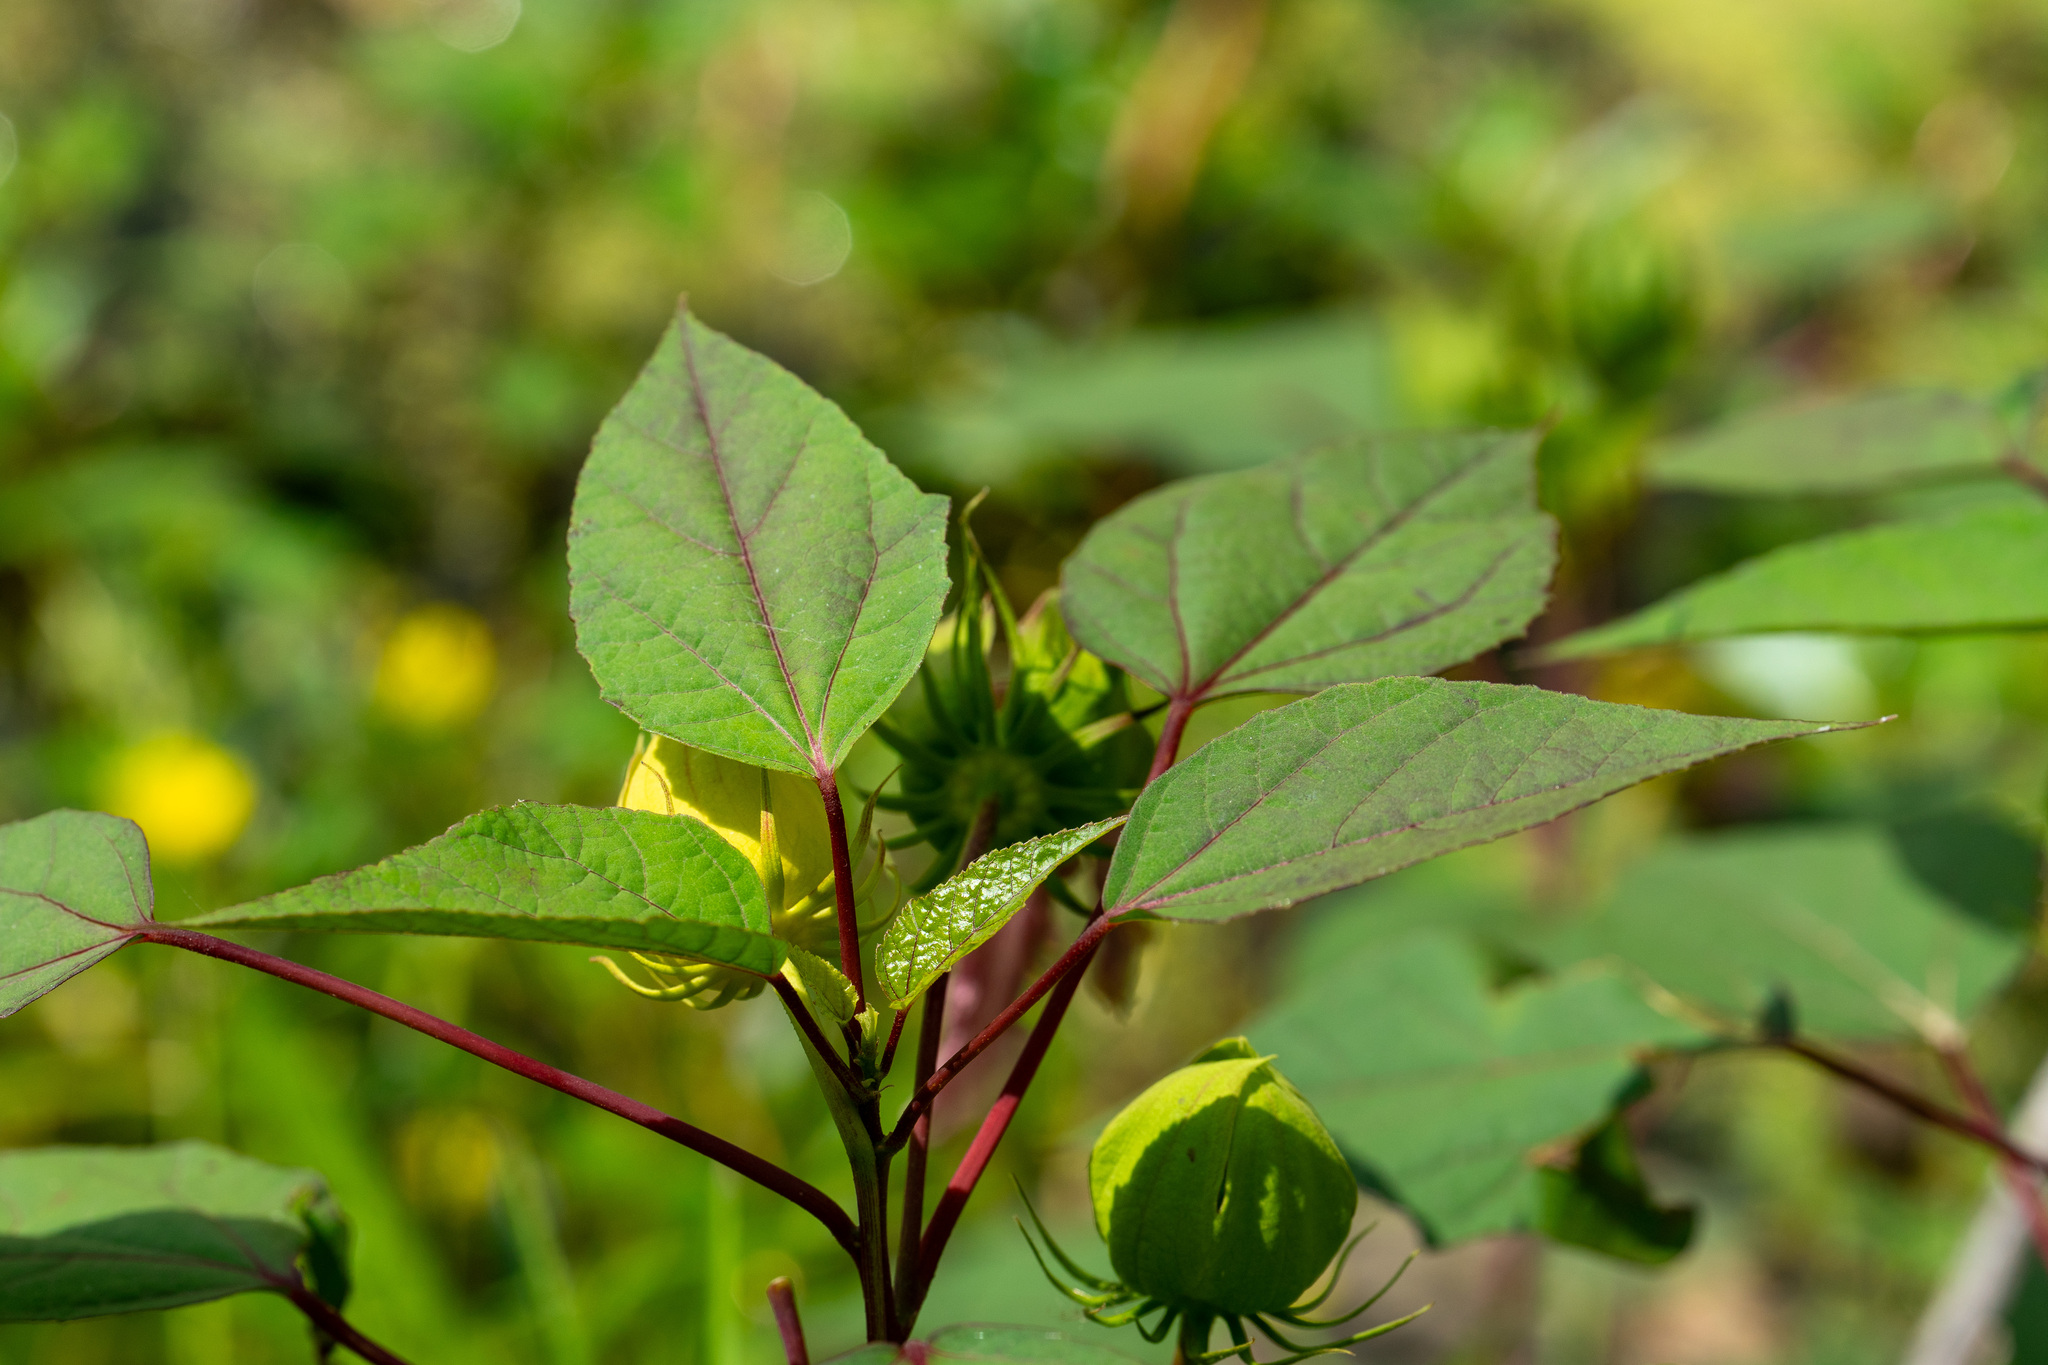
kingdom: Plantae
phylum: Tracheophyta
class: Magnoliopsida
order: Malvales
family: Malvaceae
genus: Hibiscus
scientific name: Hibiscus moscheutos
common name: Common rose-mallow
